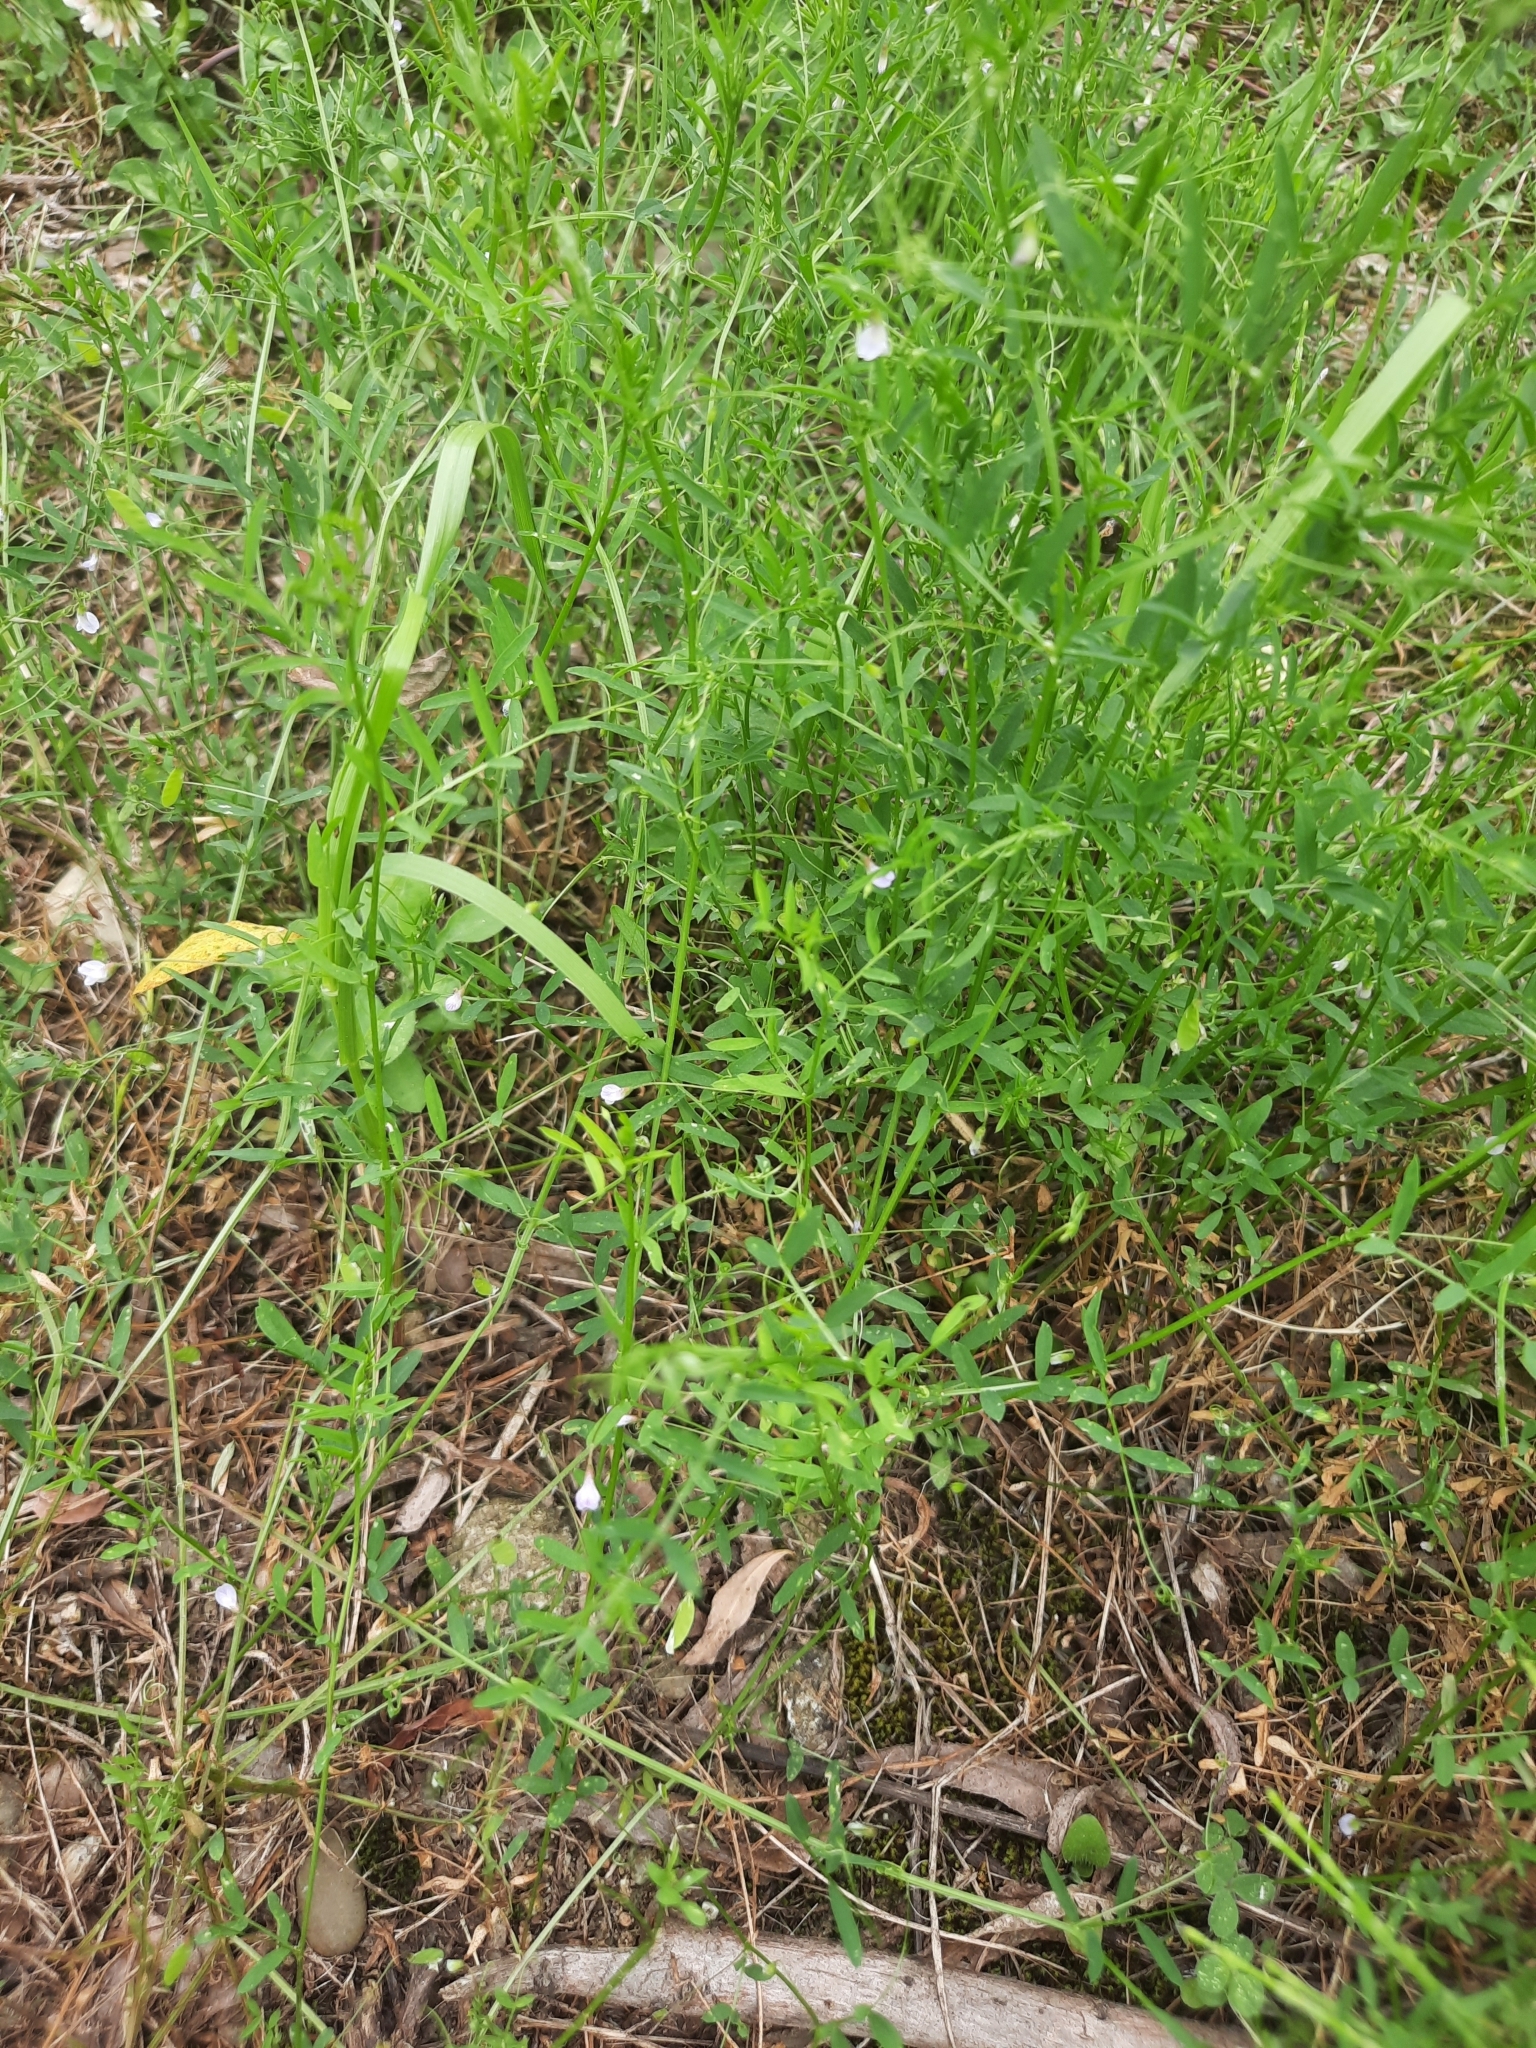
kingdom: Plantae
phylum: Tracheophyta
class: Magnoliopsida
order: Fabales
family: Fabaceae
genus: Vicia
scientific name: Vicia tetrasperma
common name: Smooth tare
